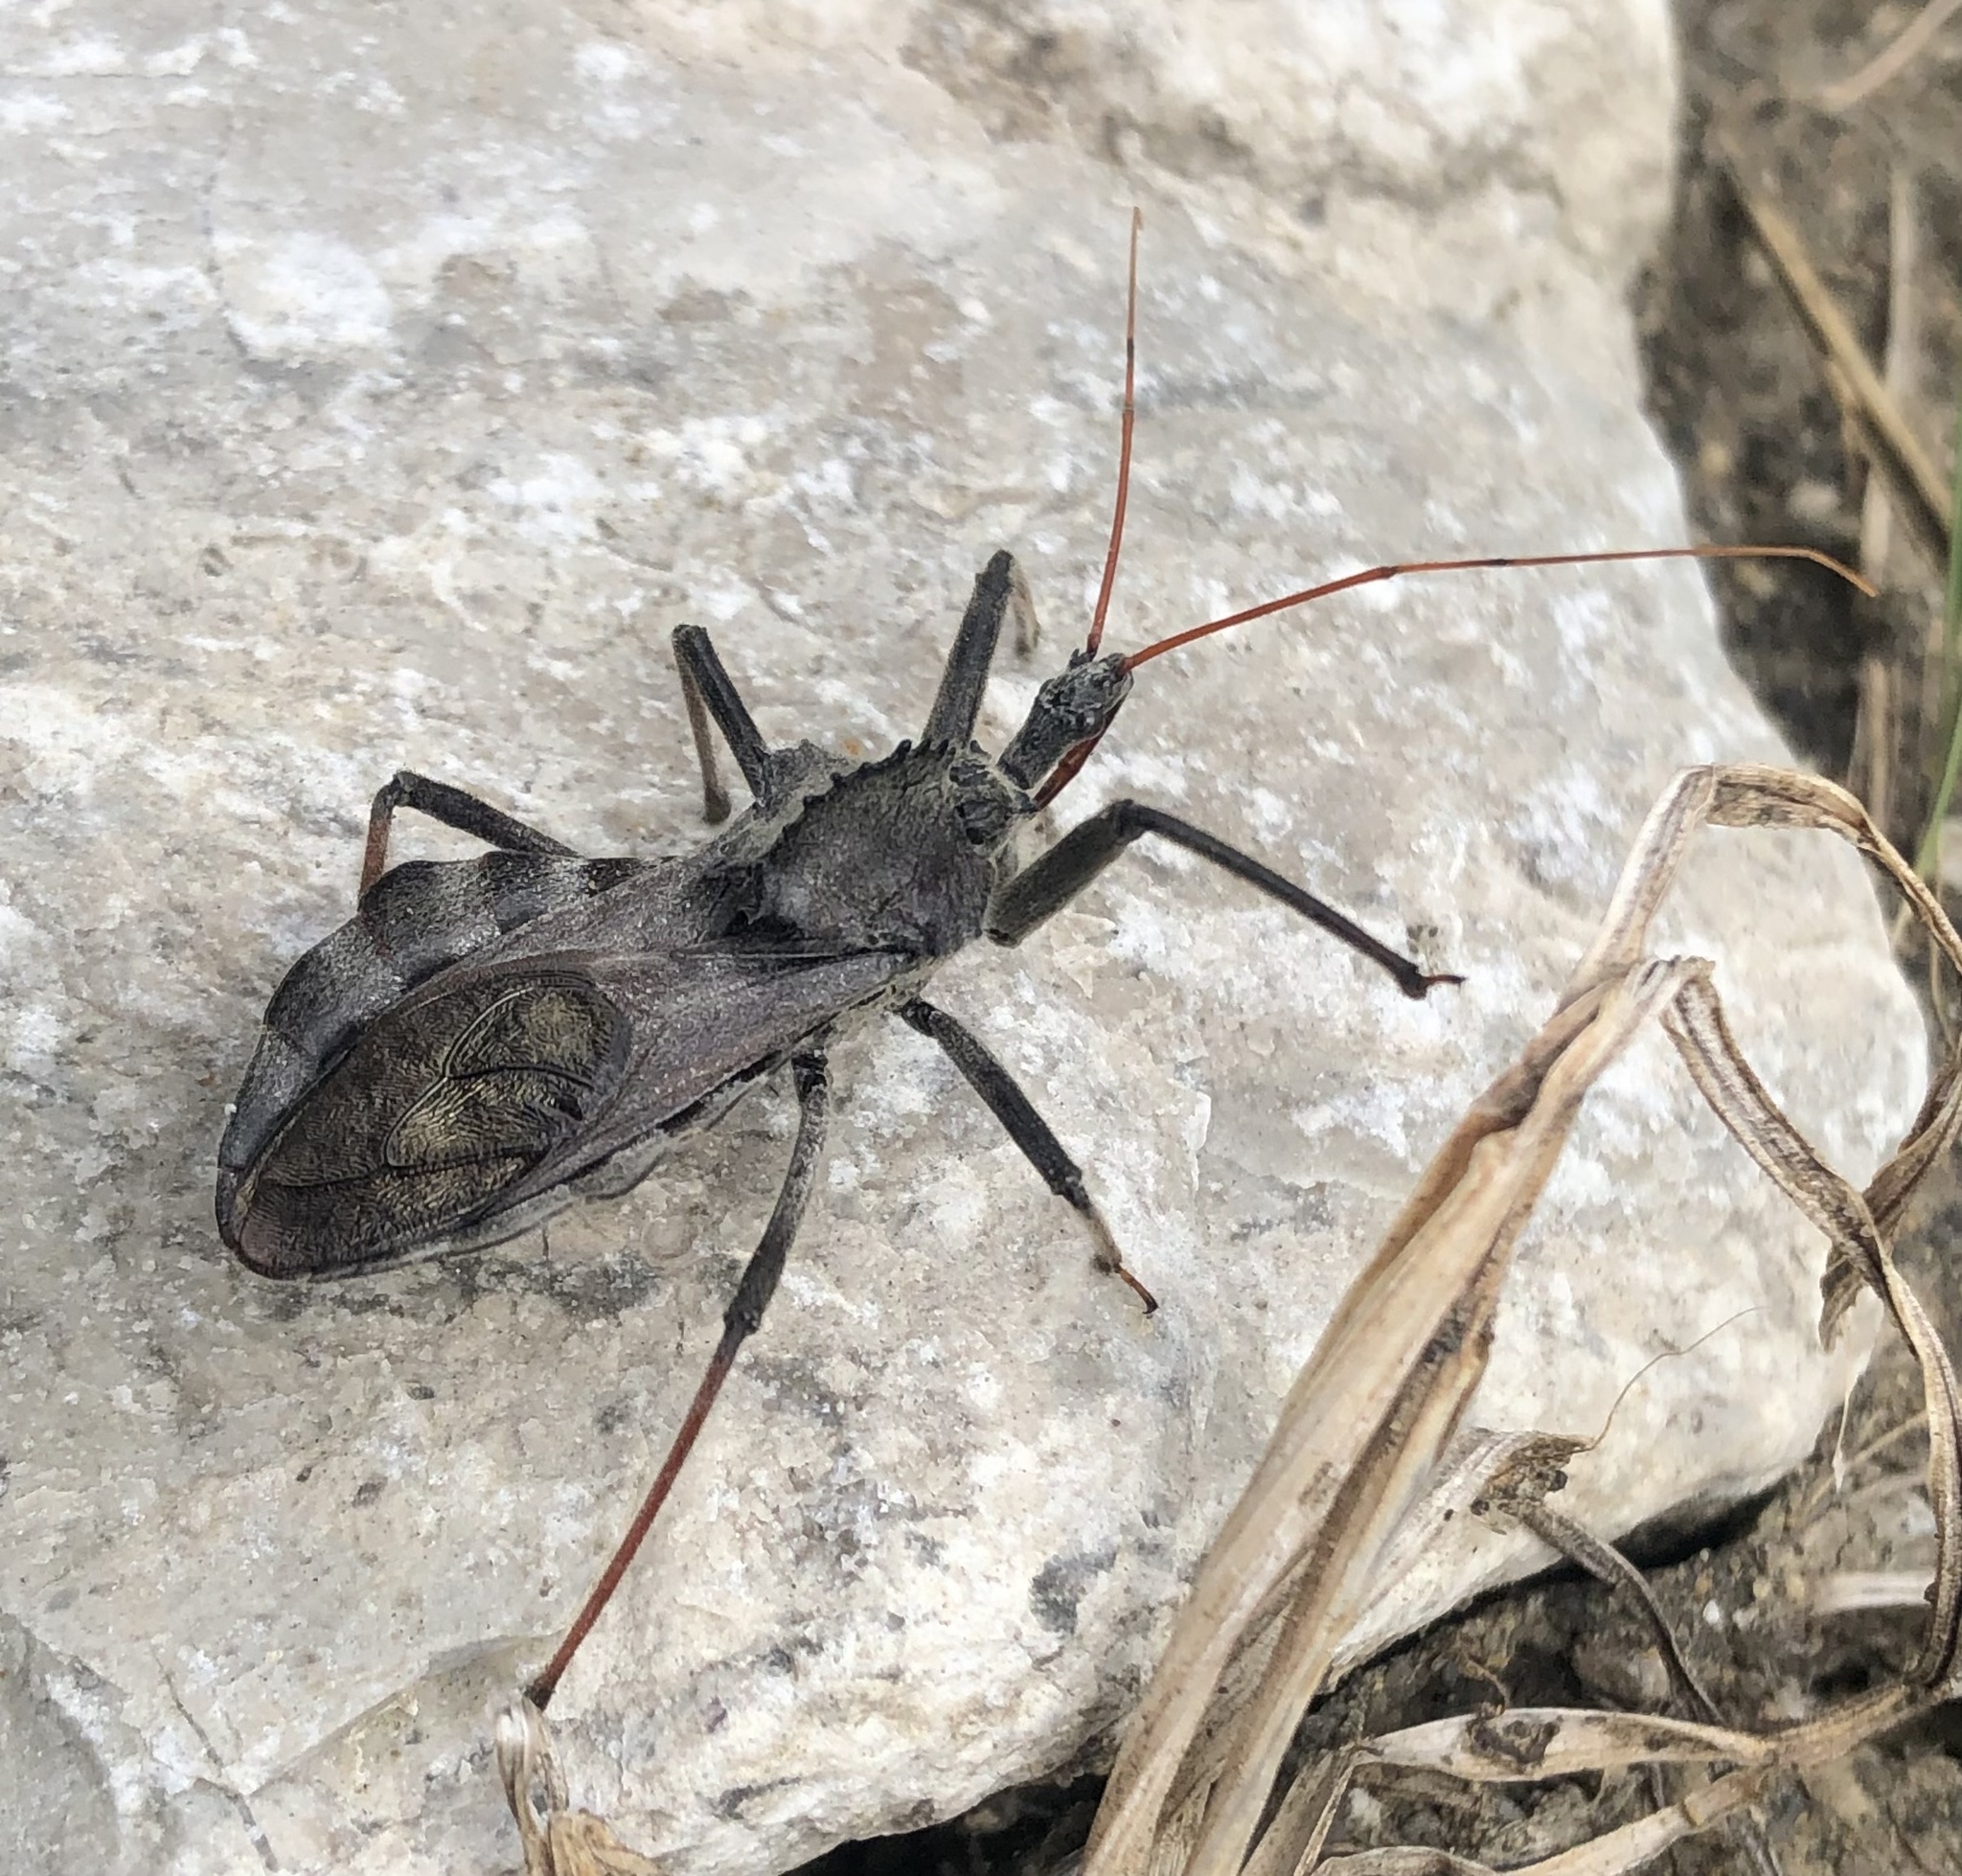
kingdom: Animalia
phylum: Arthropoda
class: Insecta
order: Hemiptera
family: Reduviidae
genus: Arilus
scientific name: Arilus cristatus
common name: North american wheel bug
